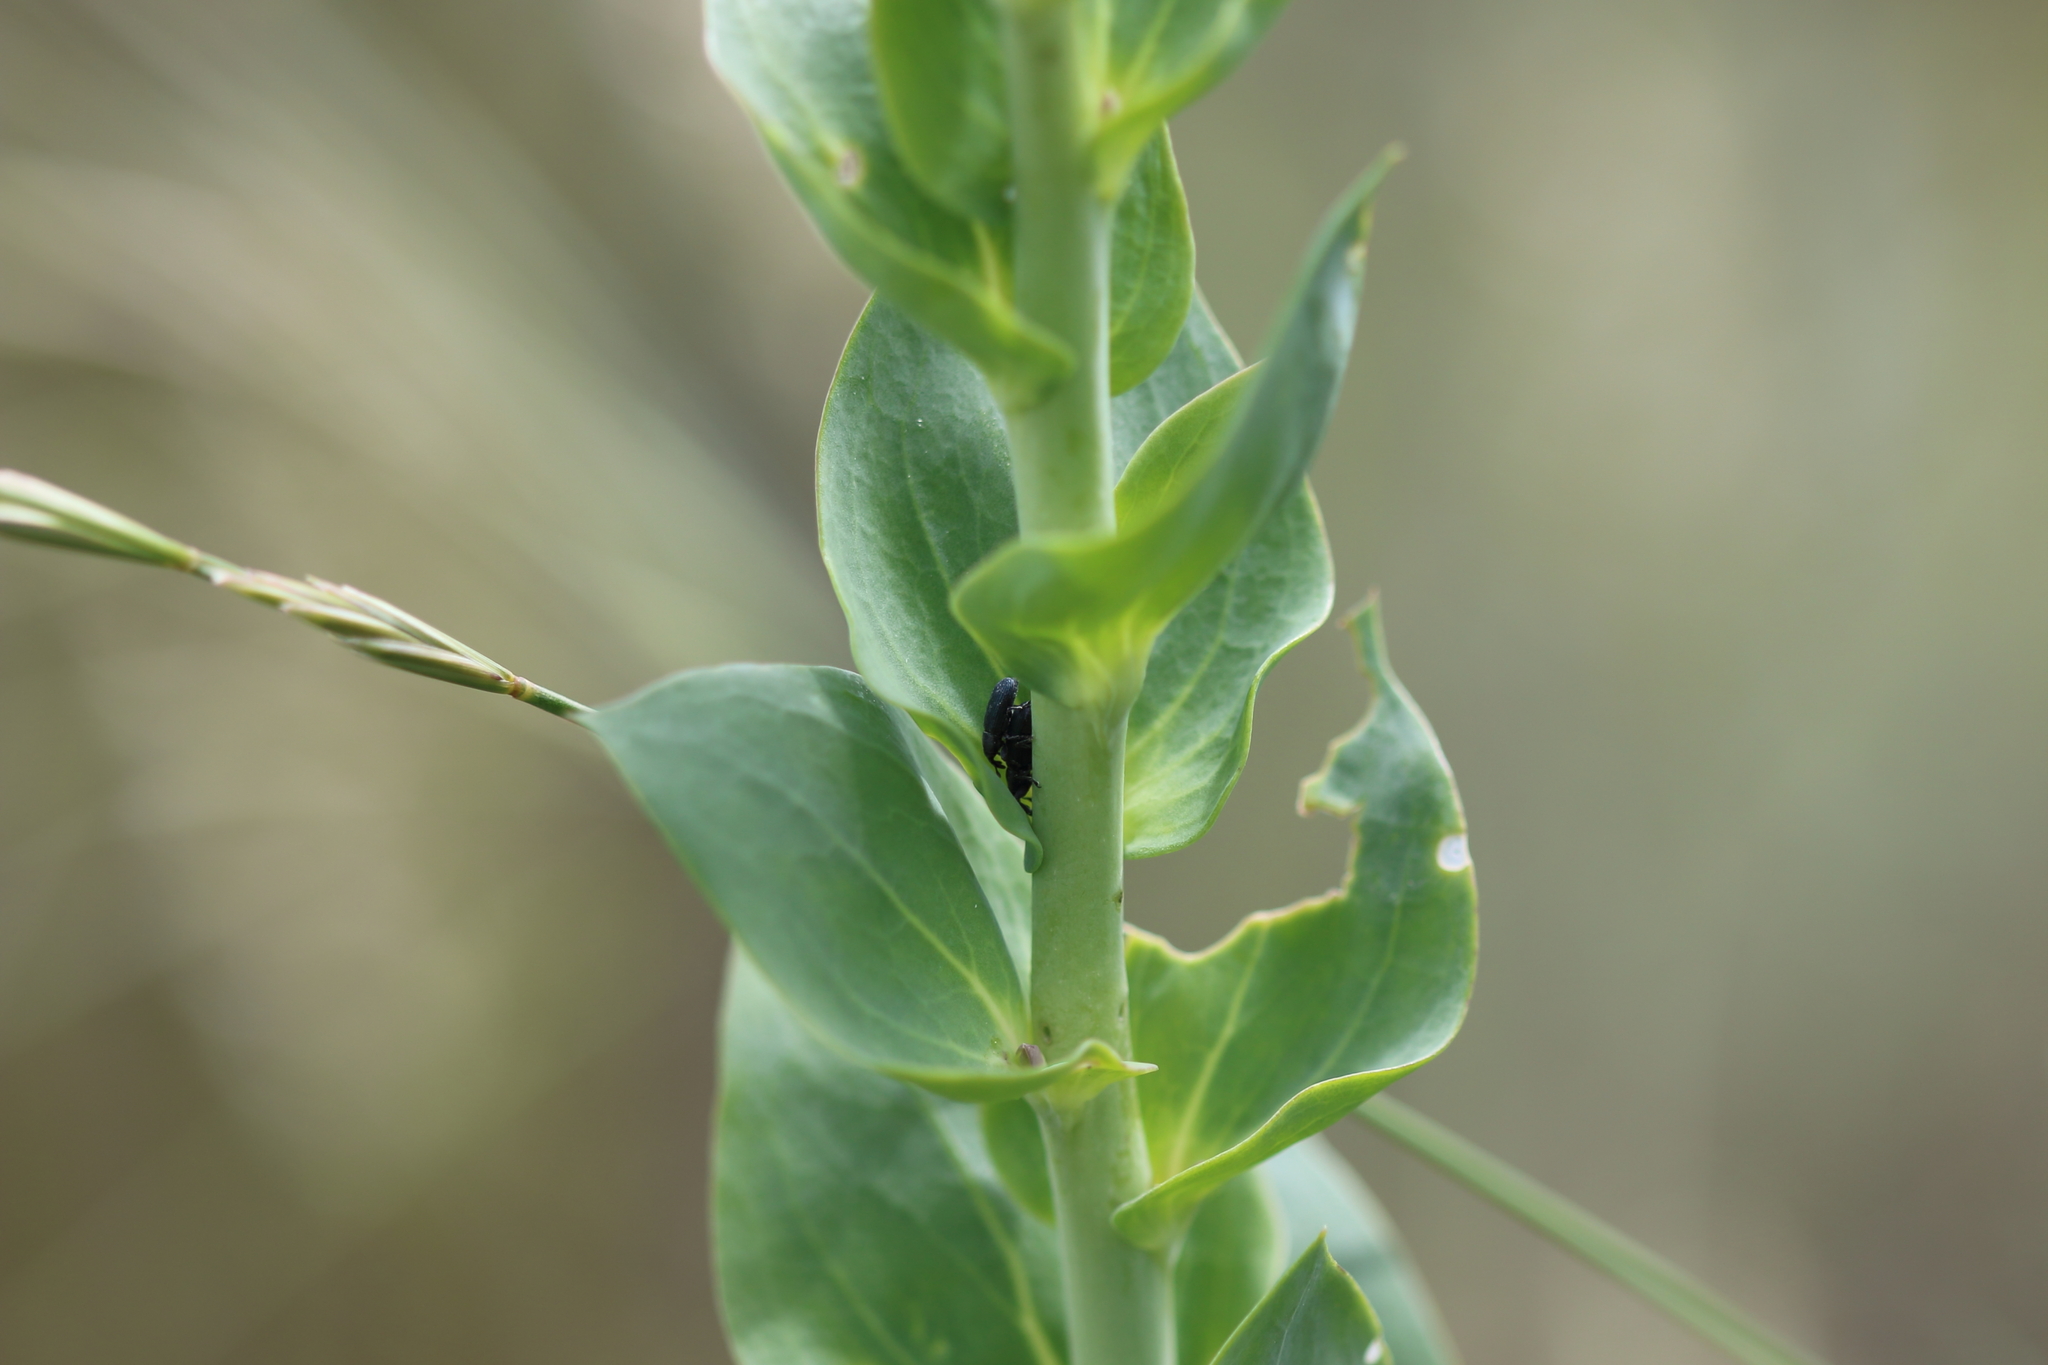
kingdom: Animalia
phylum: Arthropoda
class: Insecta
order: Coleoptera
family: Curculionidae
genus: Mecinus
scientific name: Mecinus janthiniformis
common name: Dalmatian toadflax stem weevil
